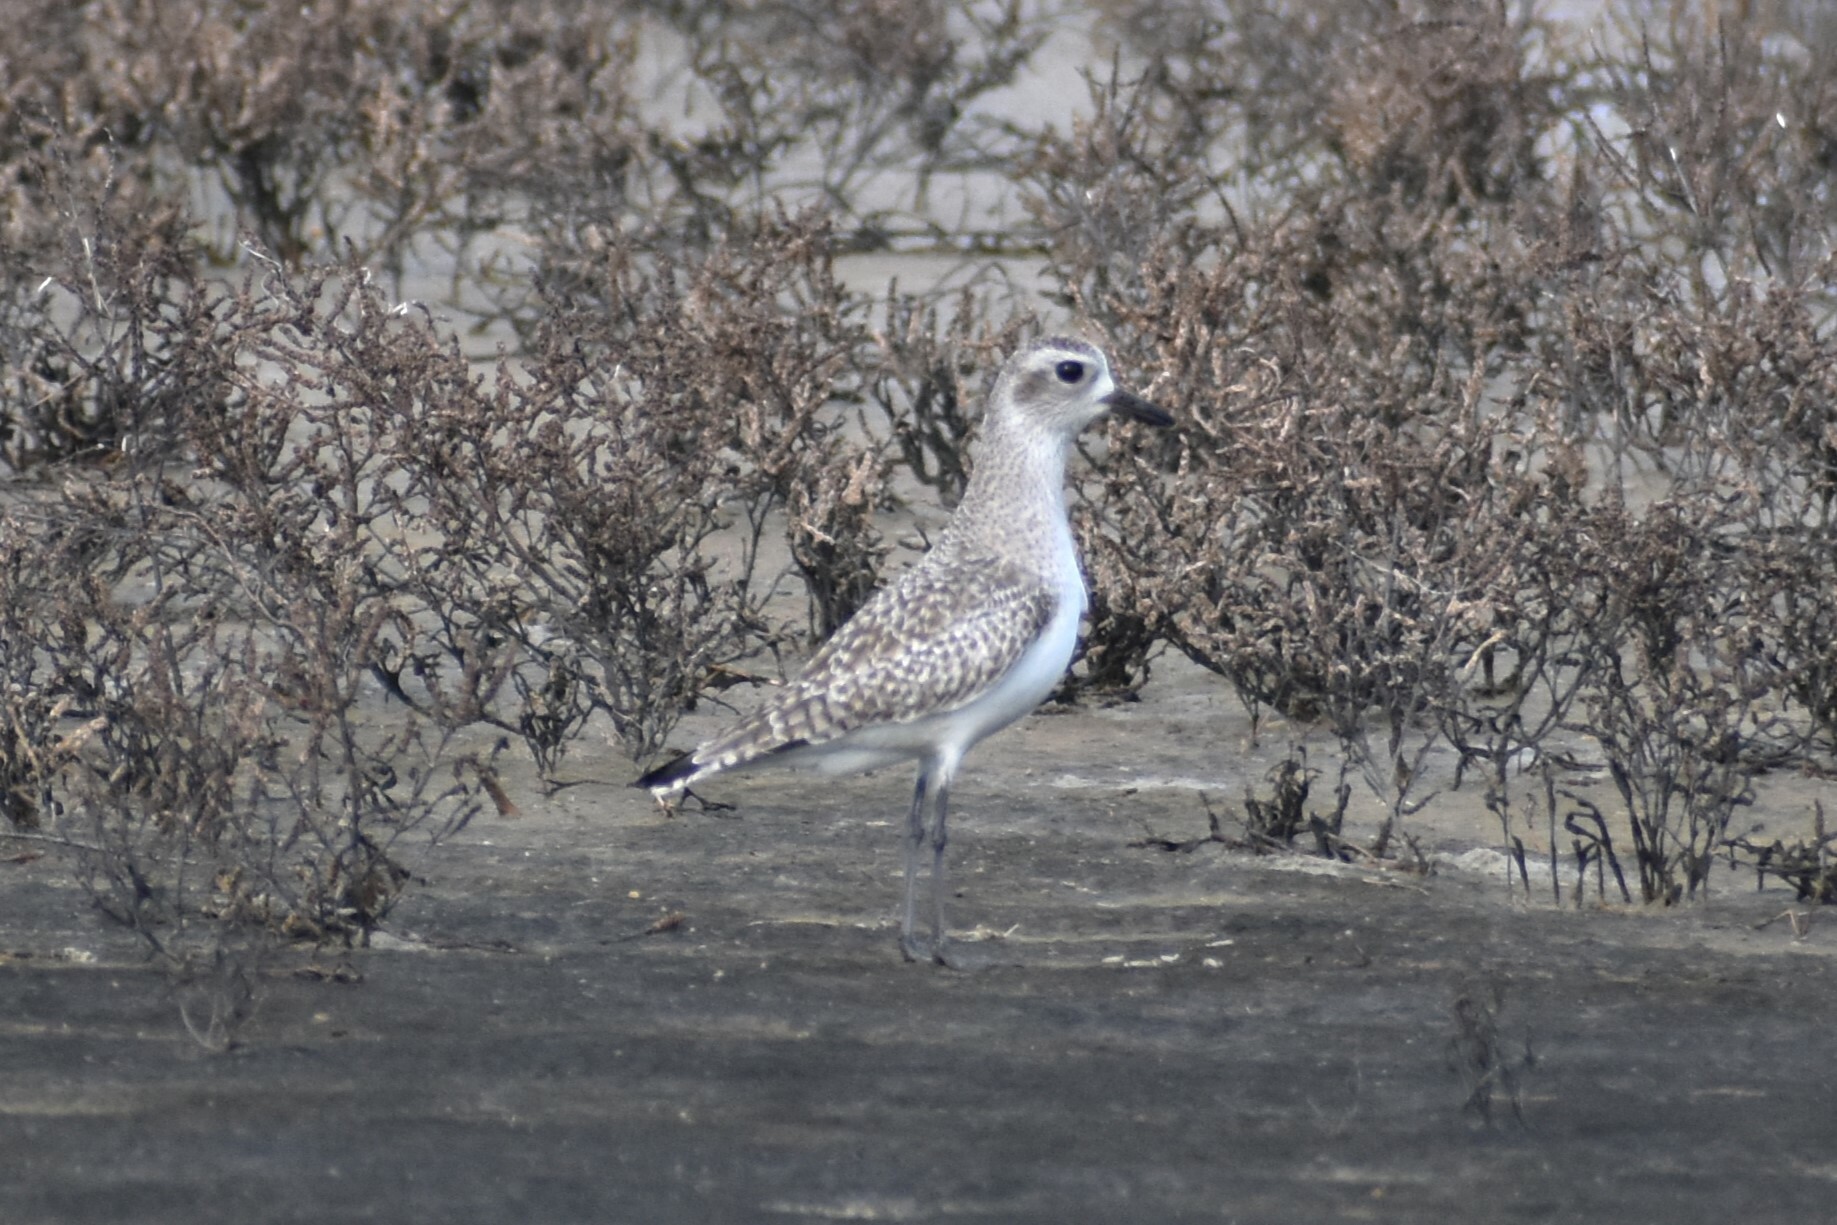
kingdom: Animalia
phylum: Chordata
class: Aves
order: Charadriiformes
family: Charadriidae
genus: Pluvialis
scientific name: Pluvialis squatarola
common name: Grey plover
